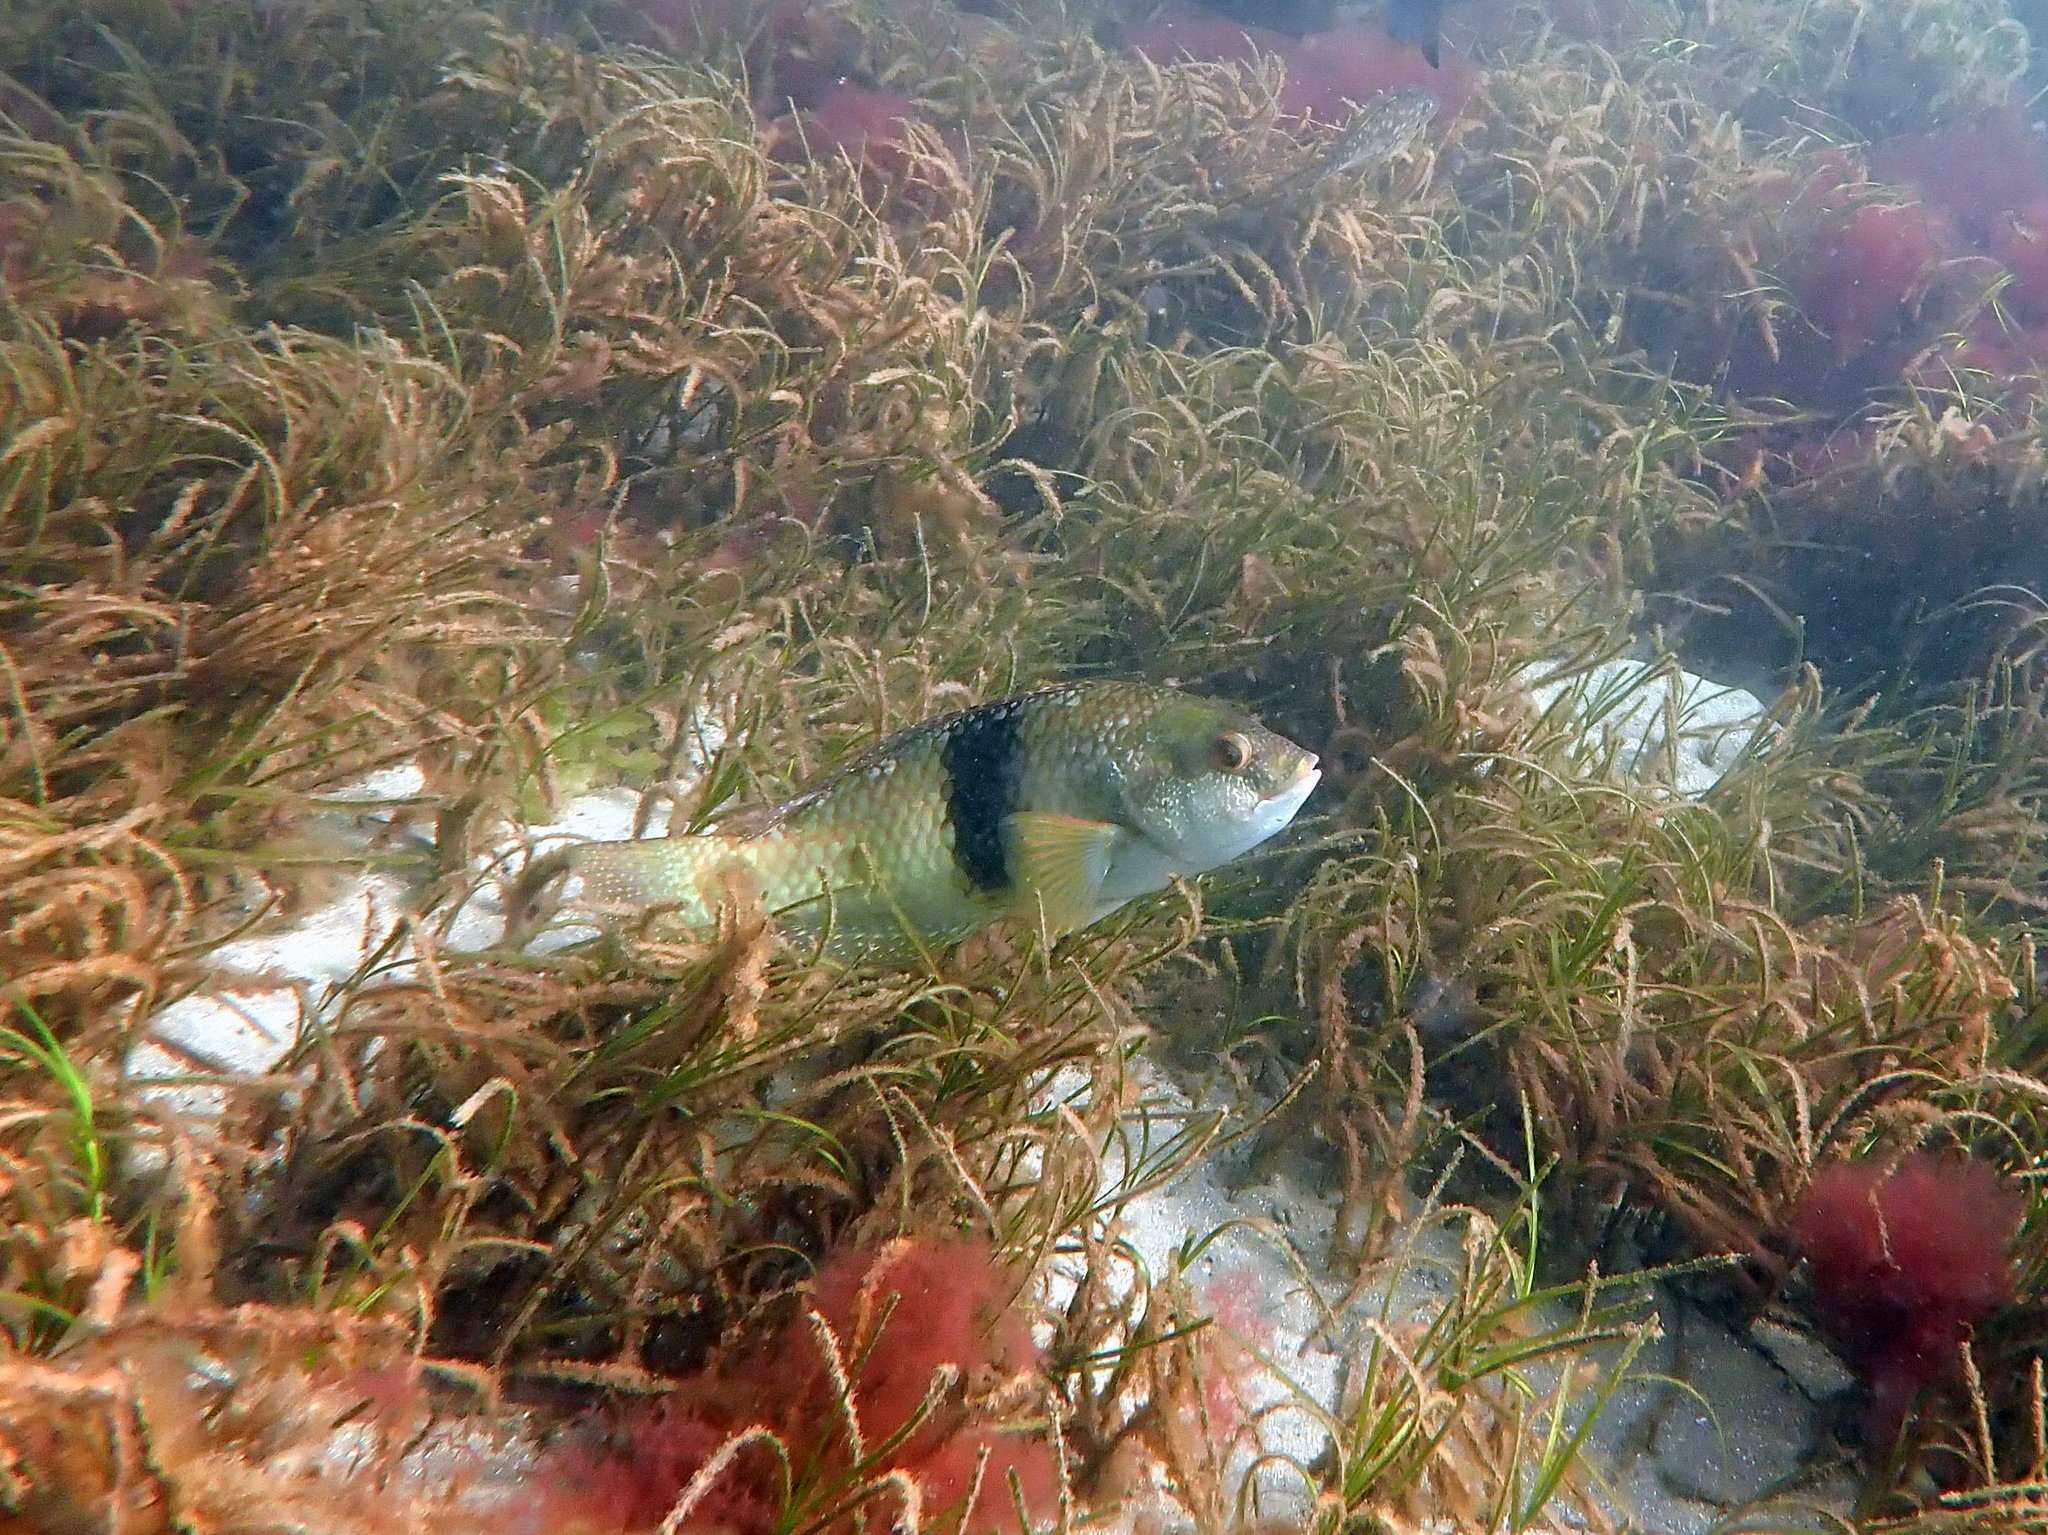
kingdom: Animalia
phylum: Chordata
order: Perciformes
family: Labridae
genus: Notolabrus
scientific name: Notolabrus tetricus
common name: Blue-throated parrotfish
